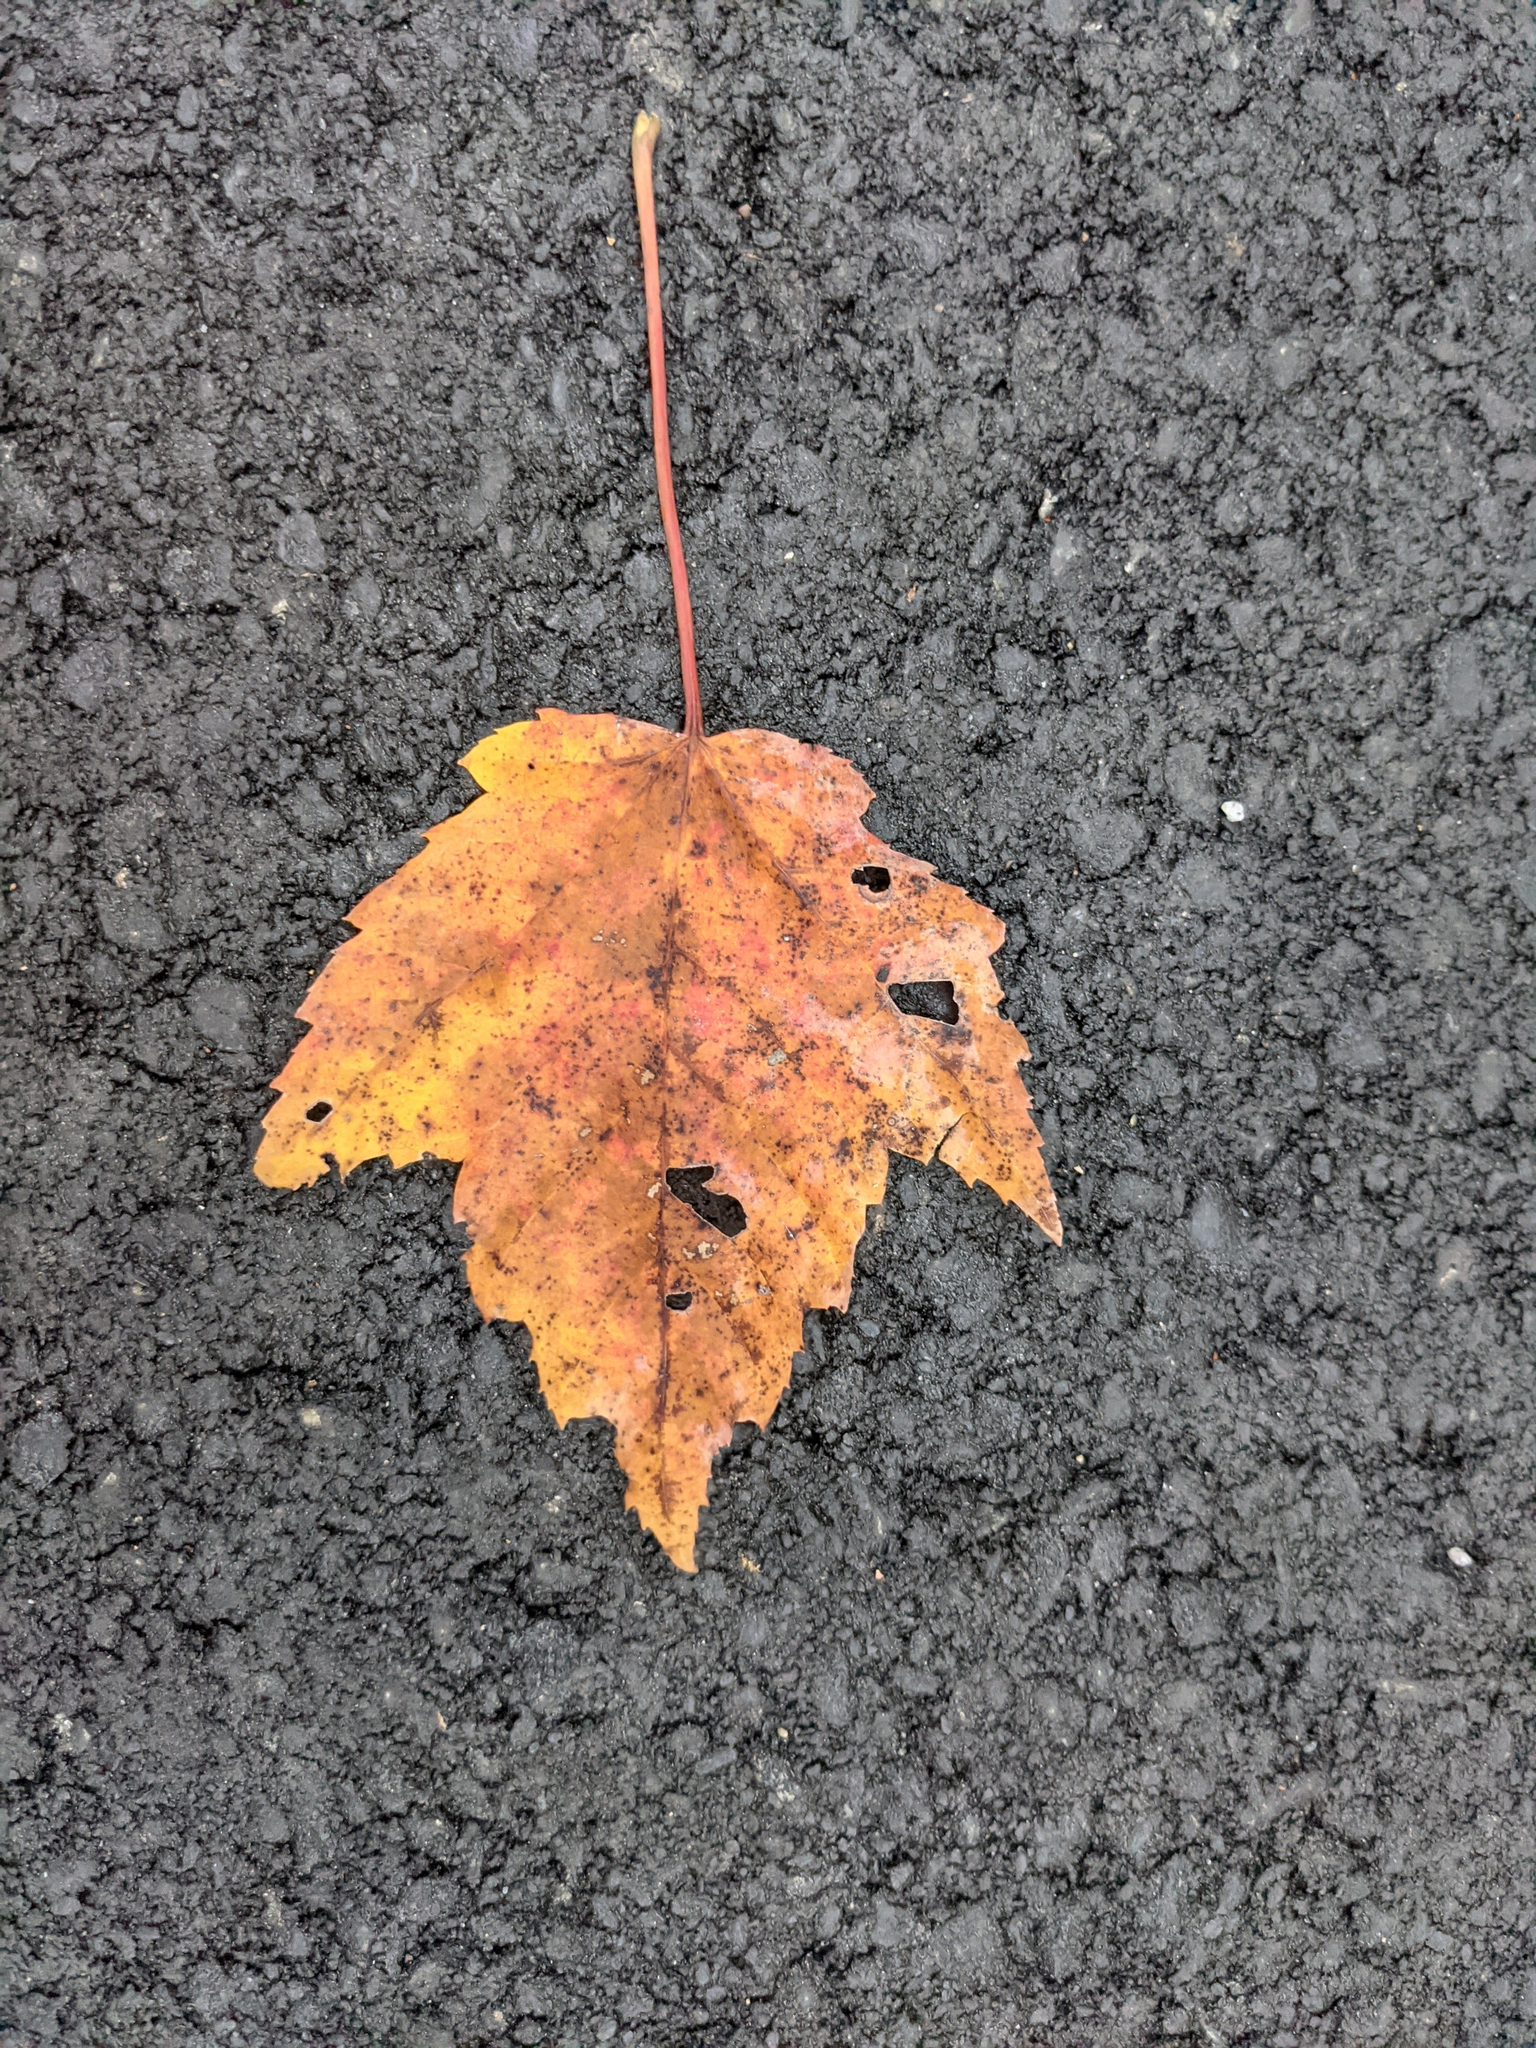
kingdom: Plantae
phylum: Tracheophyta
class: Magnoliopsida
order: Sapindales
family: Sapindaceae
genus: Acer
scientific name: Acer rubrum
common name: Red maple
